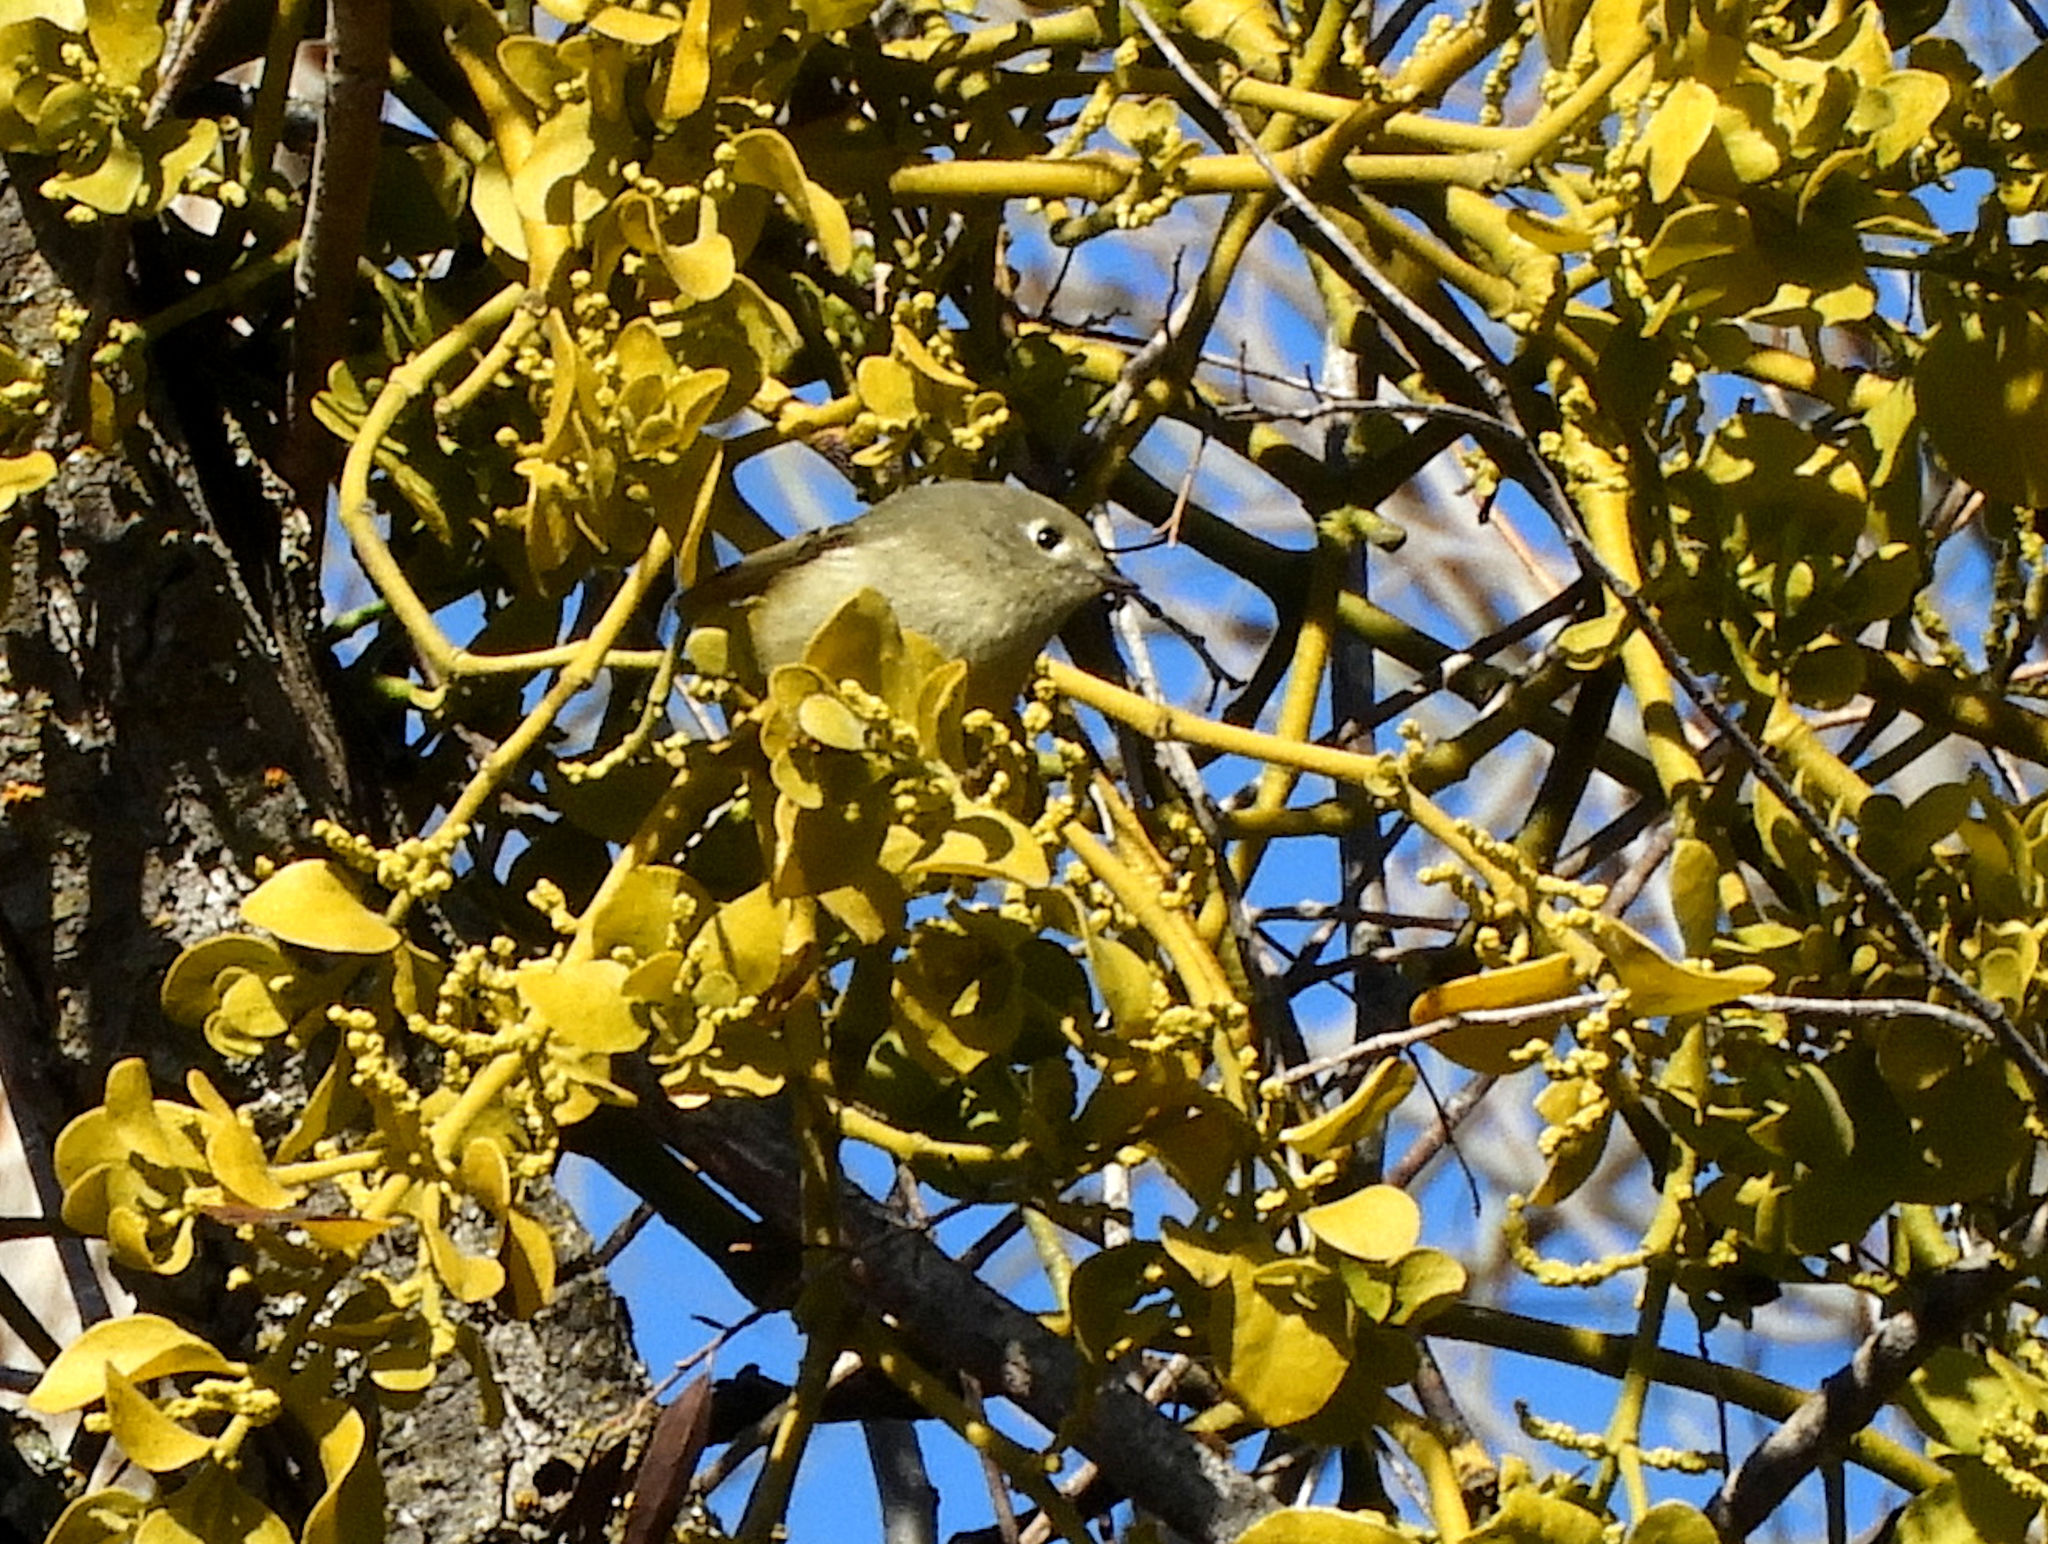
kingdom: Animalia
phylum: Chordata
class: Aves
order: Passeriformes
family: Regulidae
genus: Regulus
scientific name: Regulus calendula
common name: Ruby-crowned kinglet
